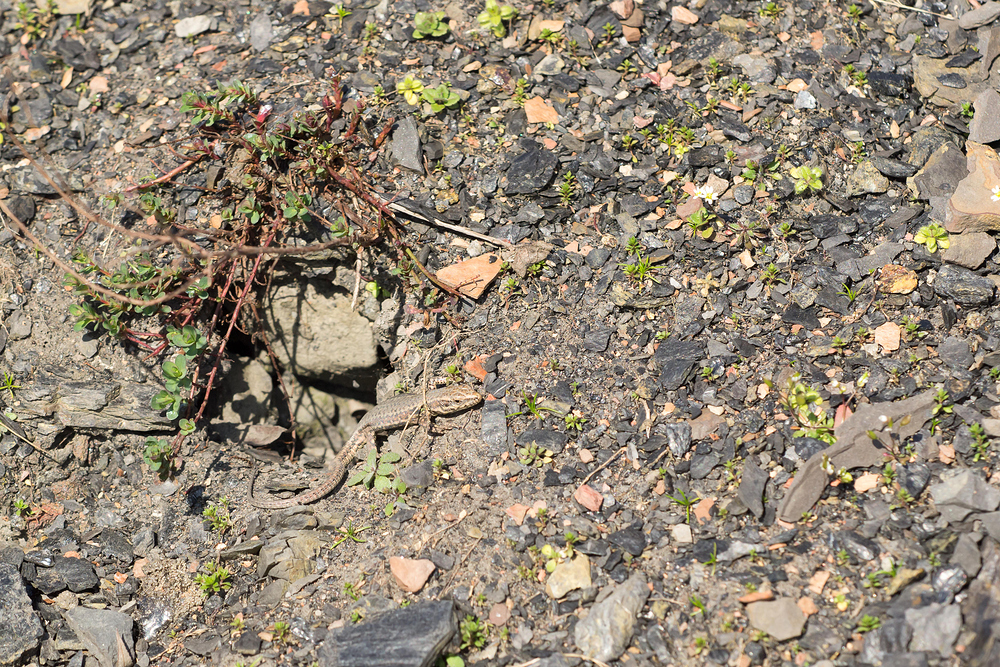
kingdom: Animalia
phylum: Chordata
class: Squamata
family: Lacertidae
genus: Podarcis
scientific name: Podarcis muralis
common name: Common wall lizard
